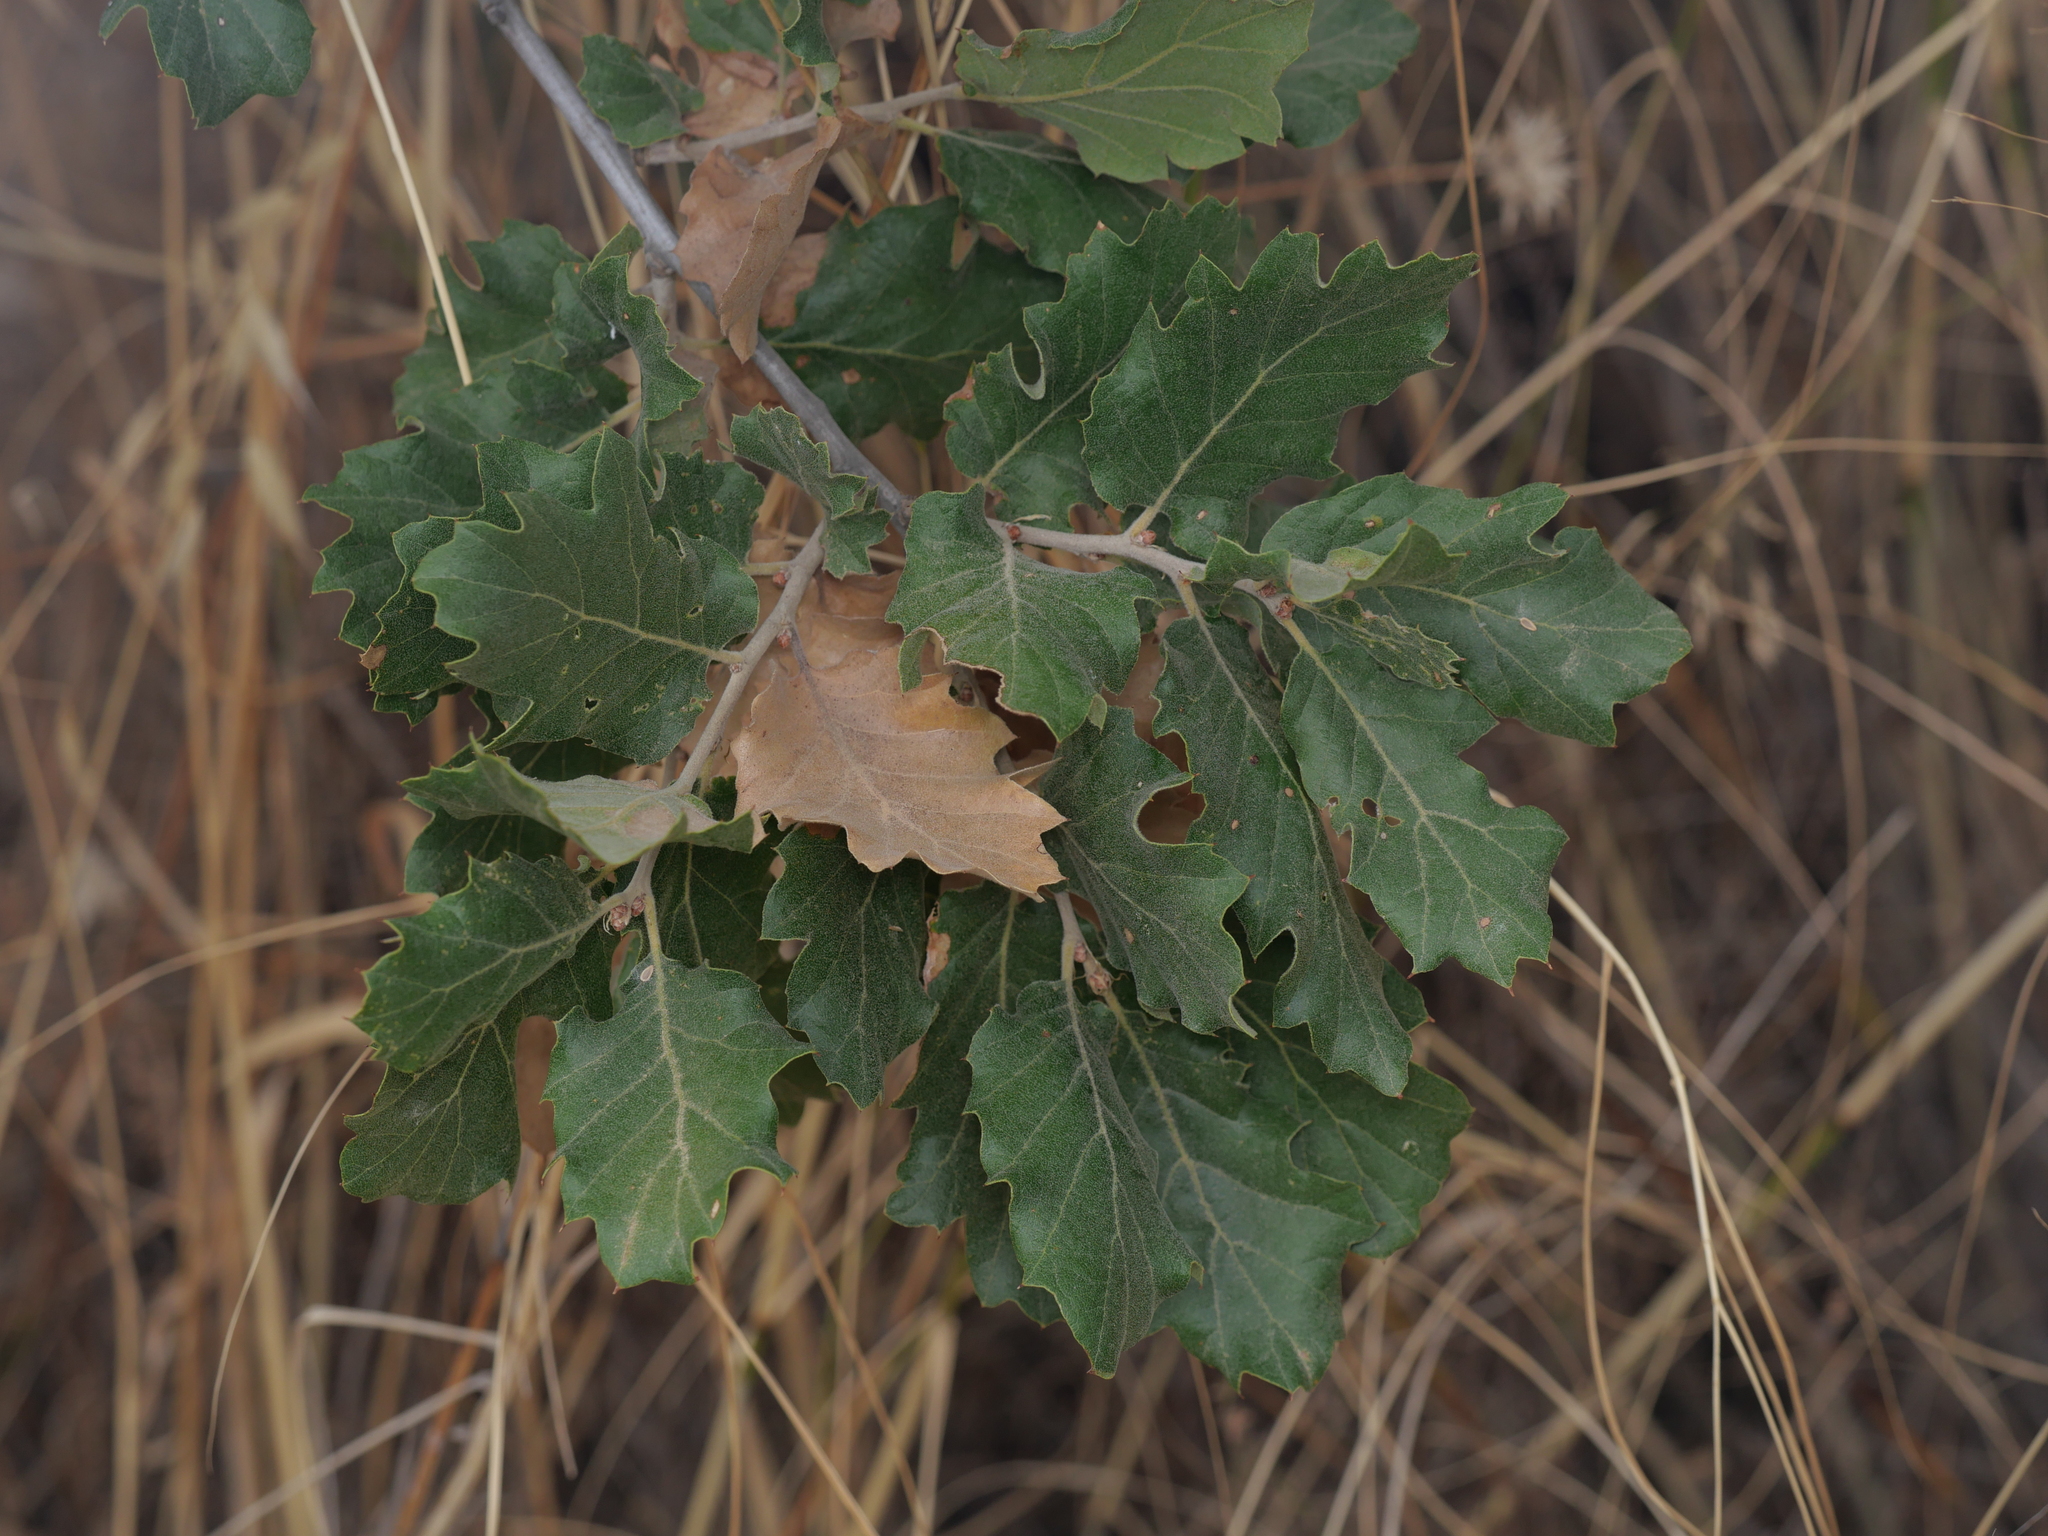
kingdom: Plantae
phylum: Tracheophyta
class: Magnoliopsida
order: Fagales
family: Fagaceae
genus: Quercus
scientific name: Quercus ithaburensis
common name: Tabor oak
